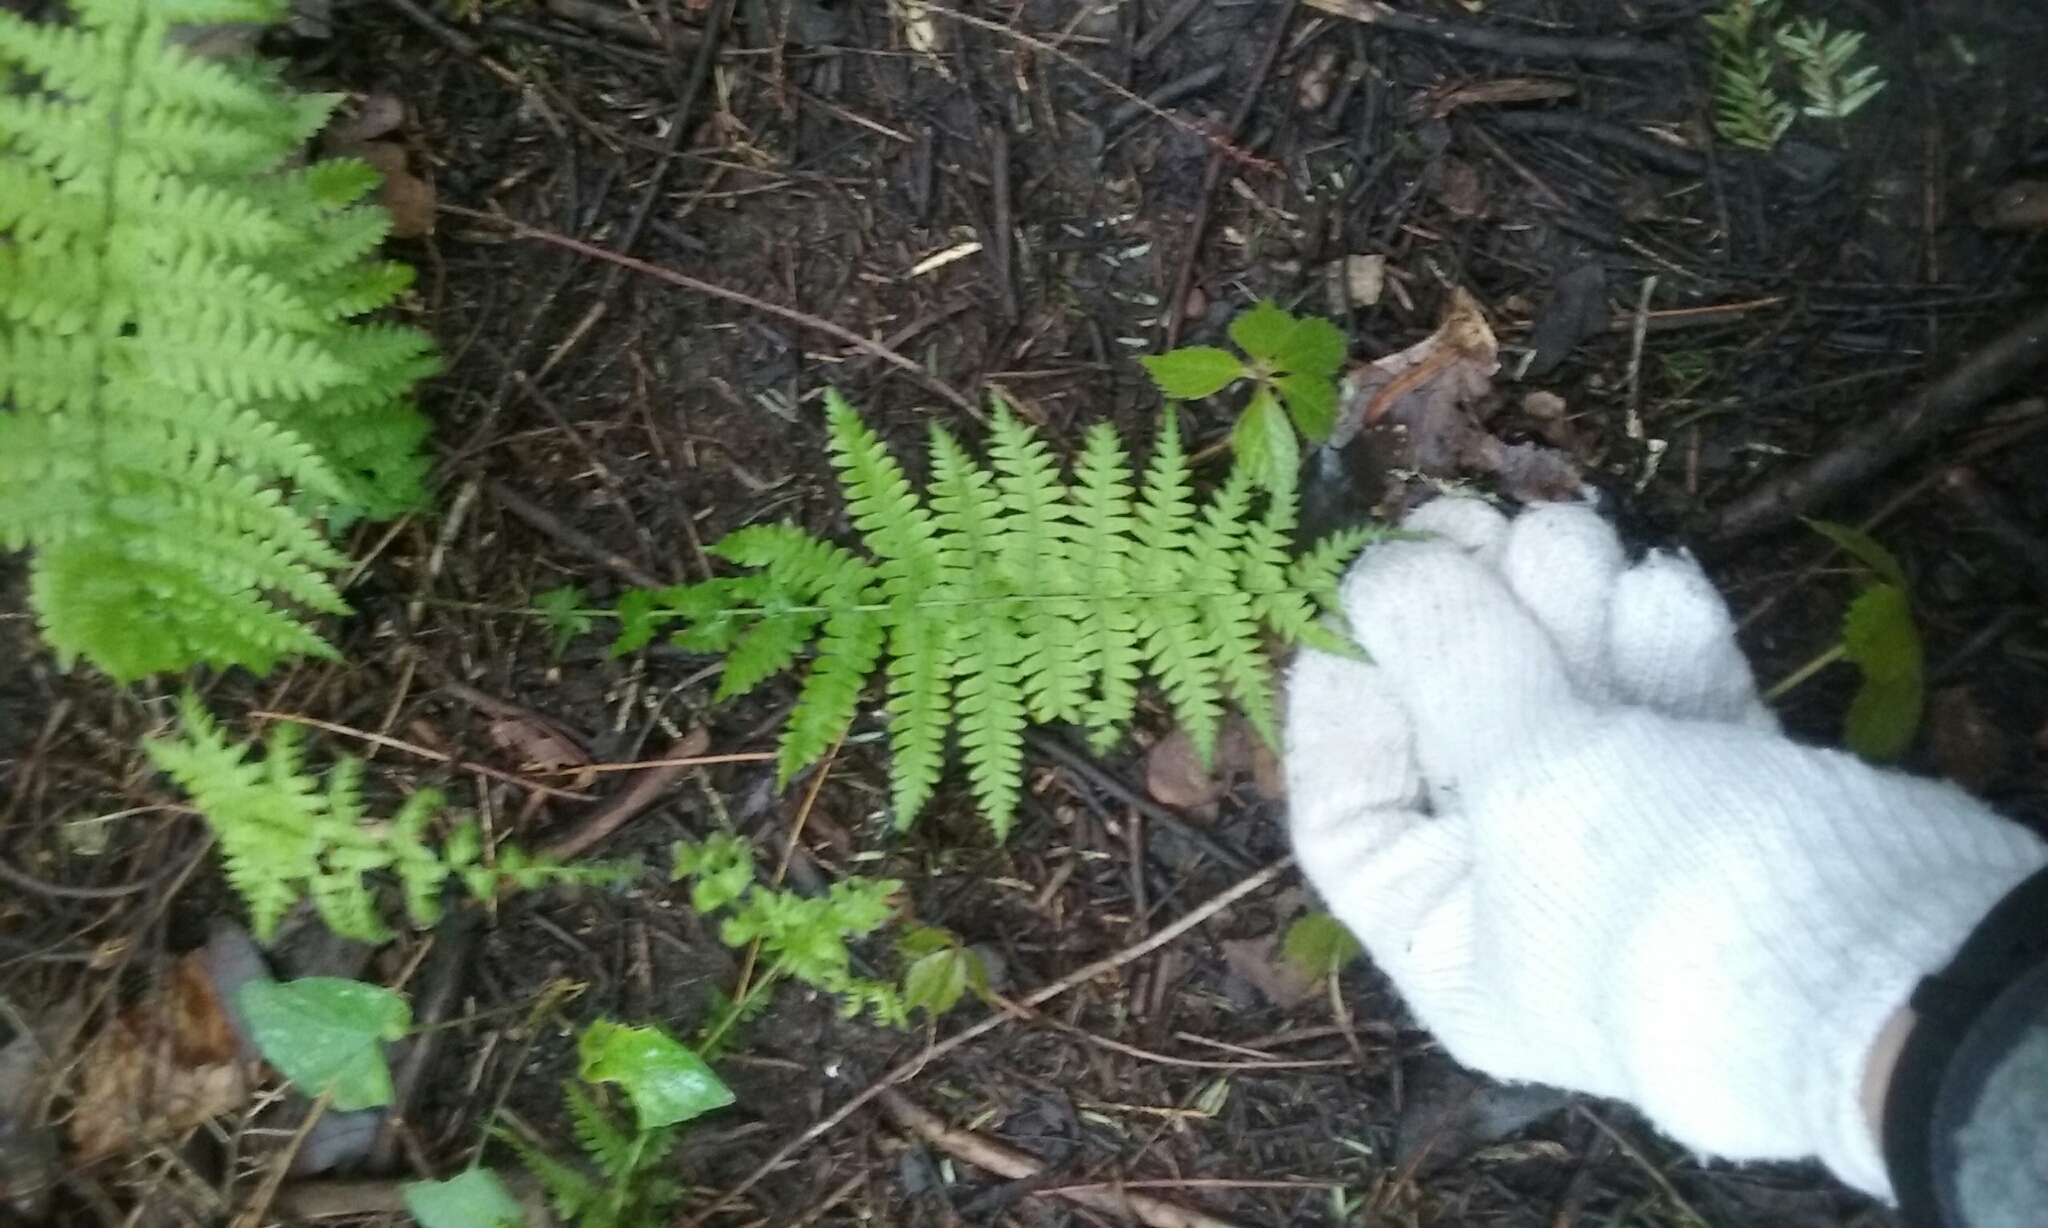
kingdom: Plantae
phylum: Tracheophyta
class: Polypodiopsida
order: Polypodiales
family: Thelypteridaceae
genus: Amauropelta
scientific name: Amauropelta noveboracensis
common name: New york fern
